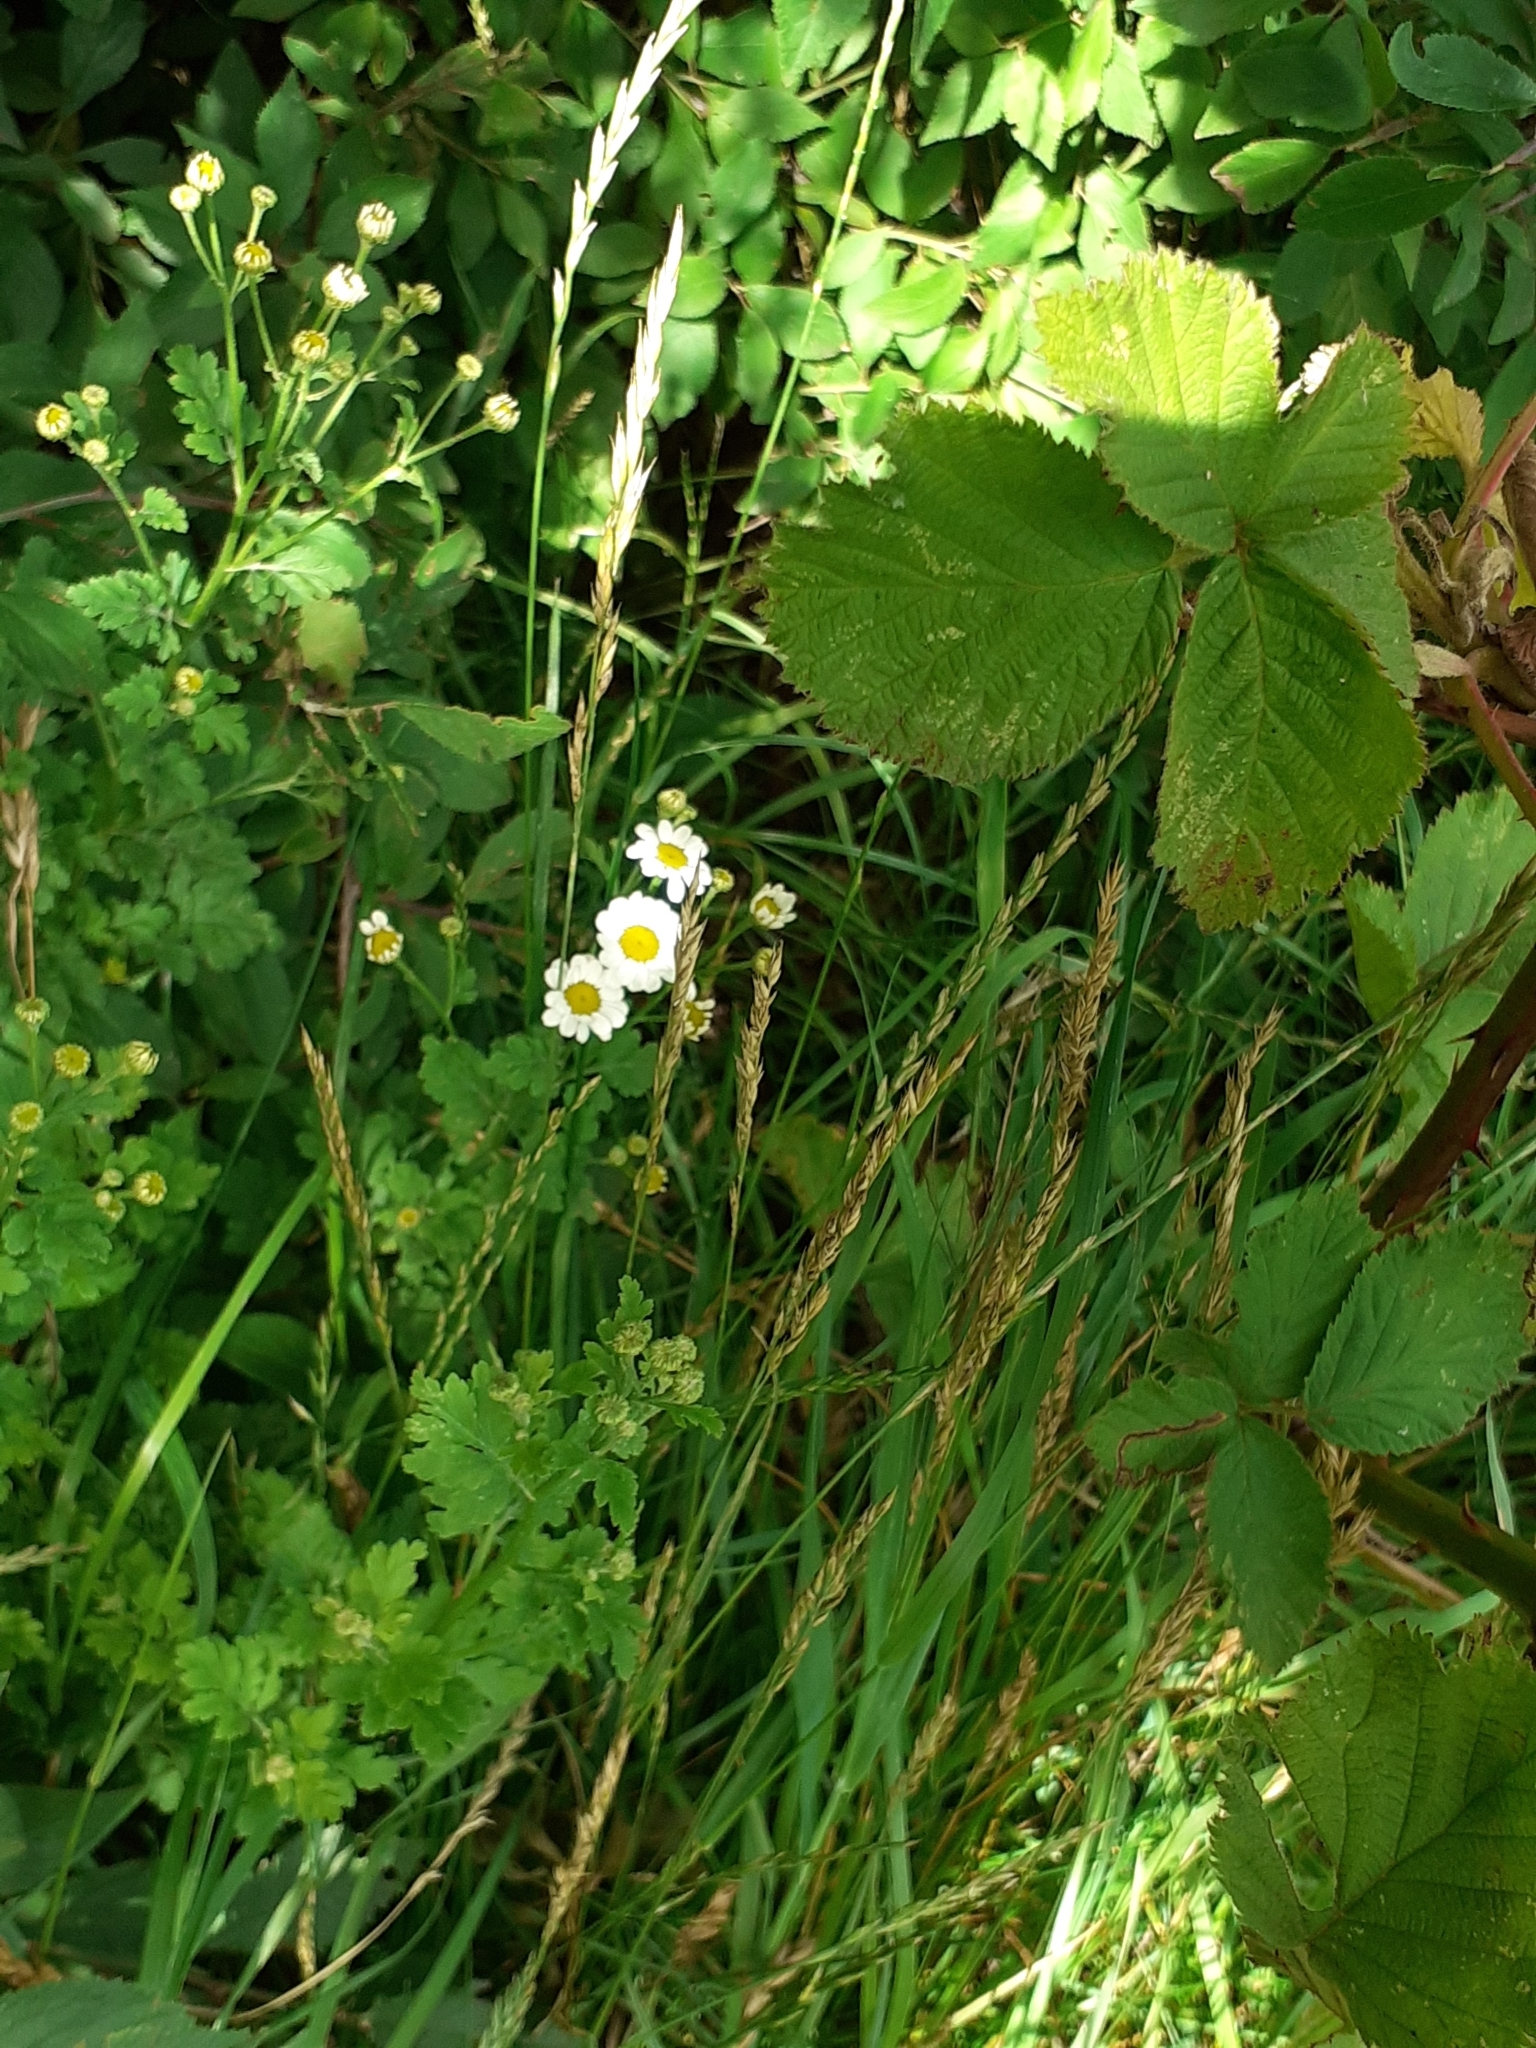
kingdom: Plantae
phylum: Tracheophyta
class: Magnoliopsida
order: Asterales
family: Asteraceae
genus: Tanacetum
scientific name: Tanacetum parthenium
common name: Feverfew
